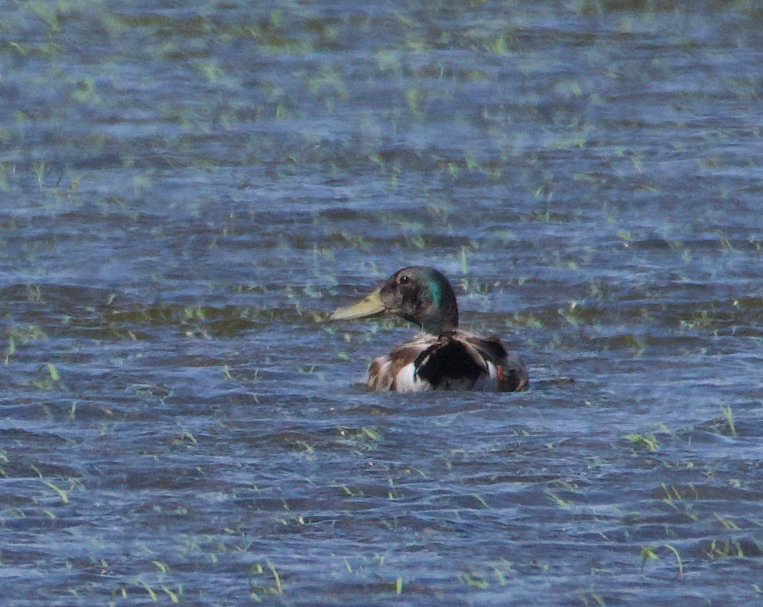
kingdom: Animalia
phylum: Chordata
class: Aves
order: Anseriformes
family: Anatidae
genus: Anas
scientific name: Anas platyrhynchos
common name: Mallard
